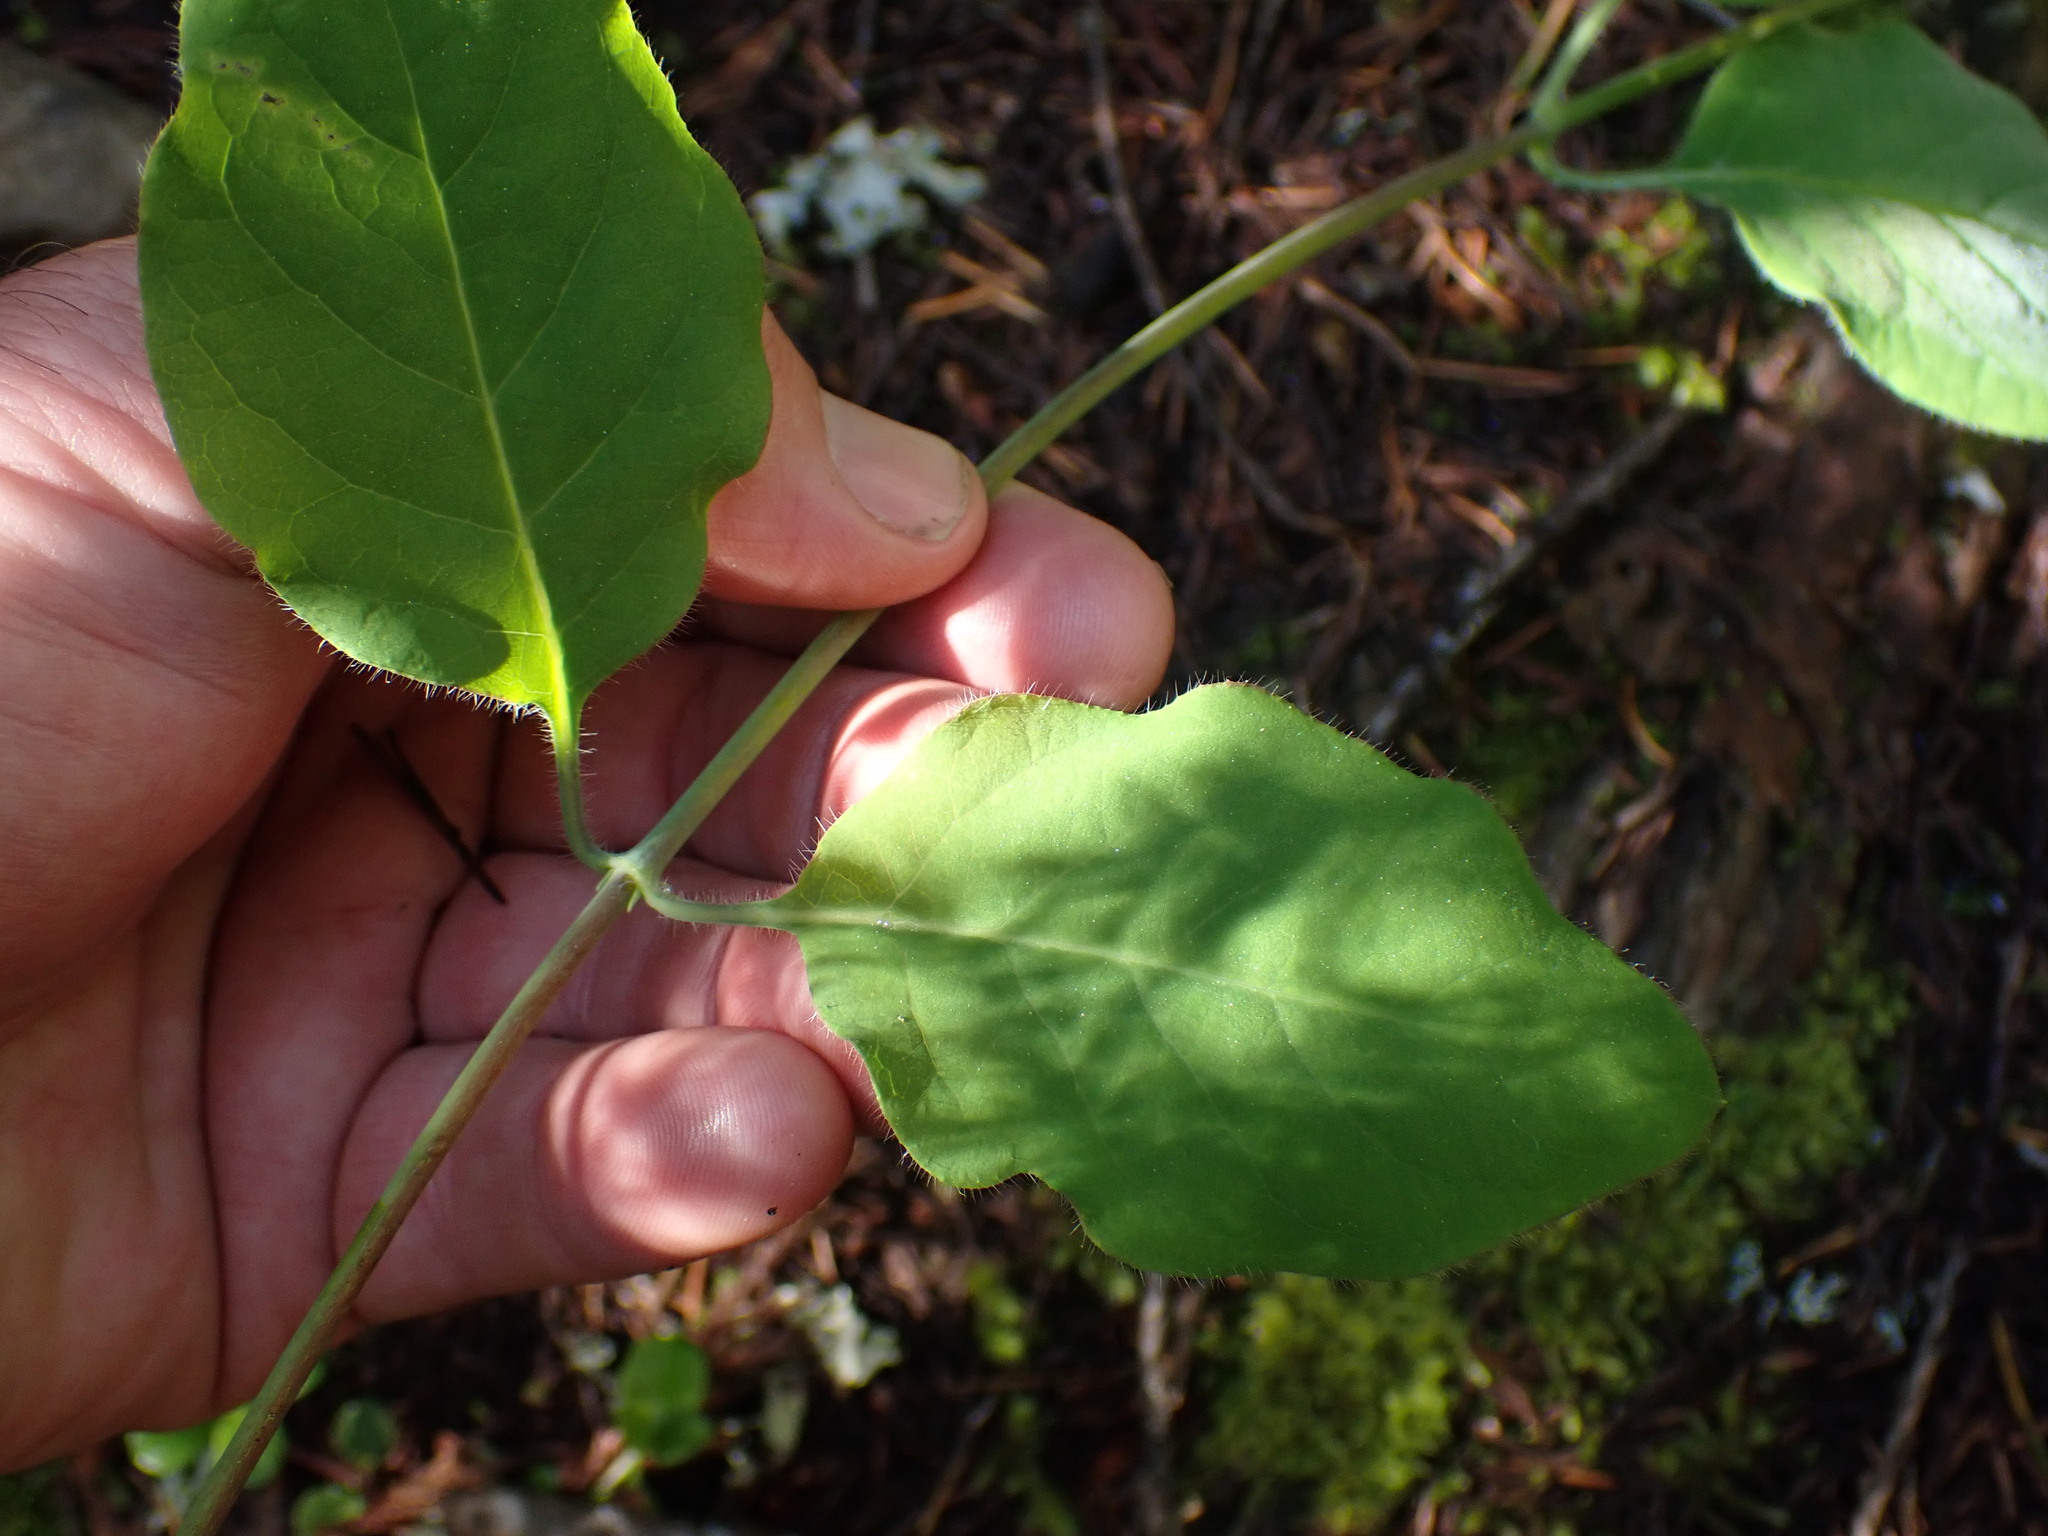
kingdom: Plantae
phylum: Tracheophyta
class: Magnoliopsida
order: Dipsacales
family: Caprifoliaceae
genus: Lonicera
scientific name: Lonicera ciliosa
